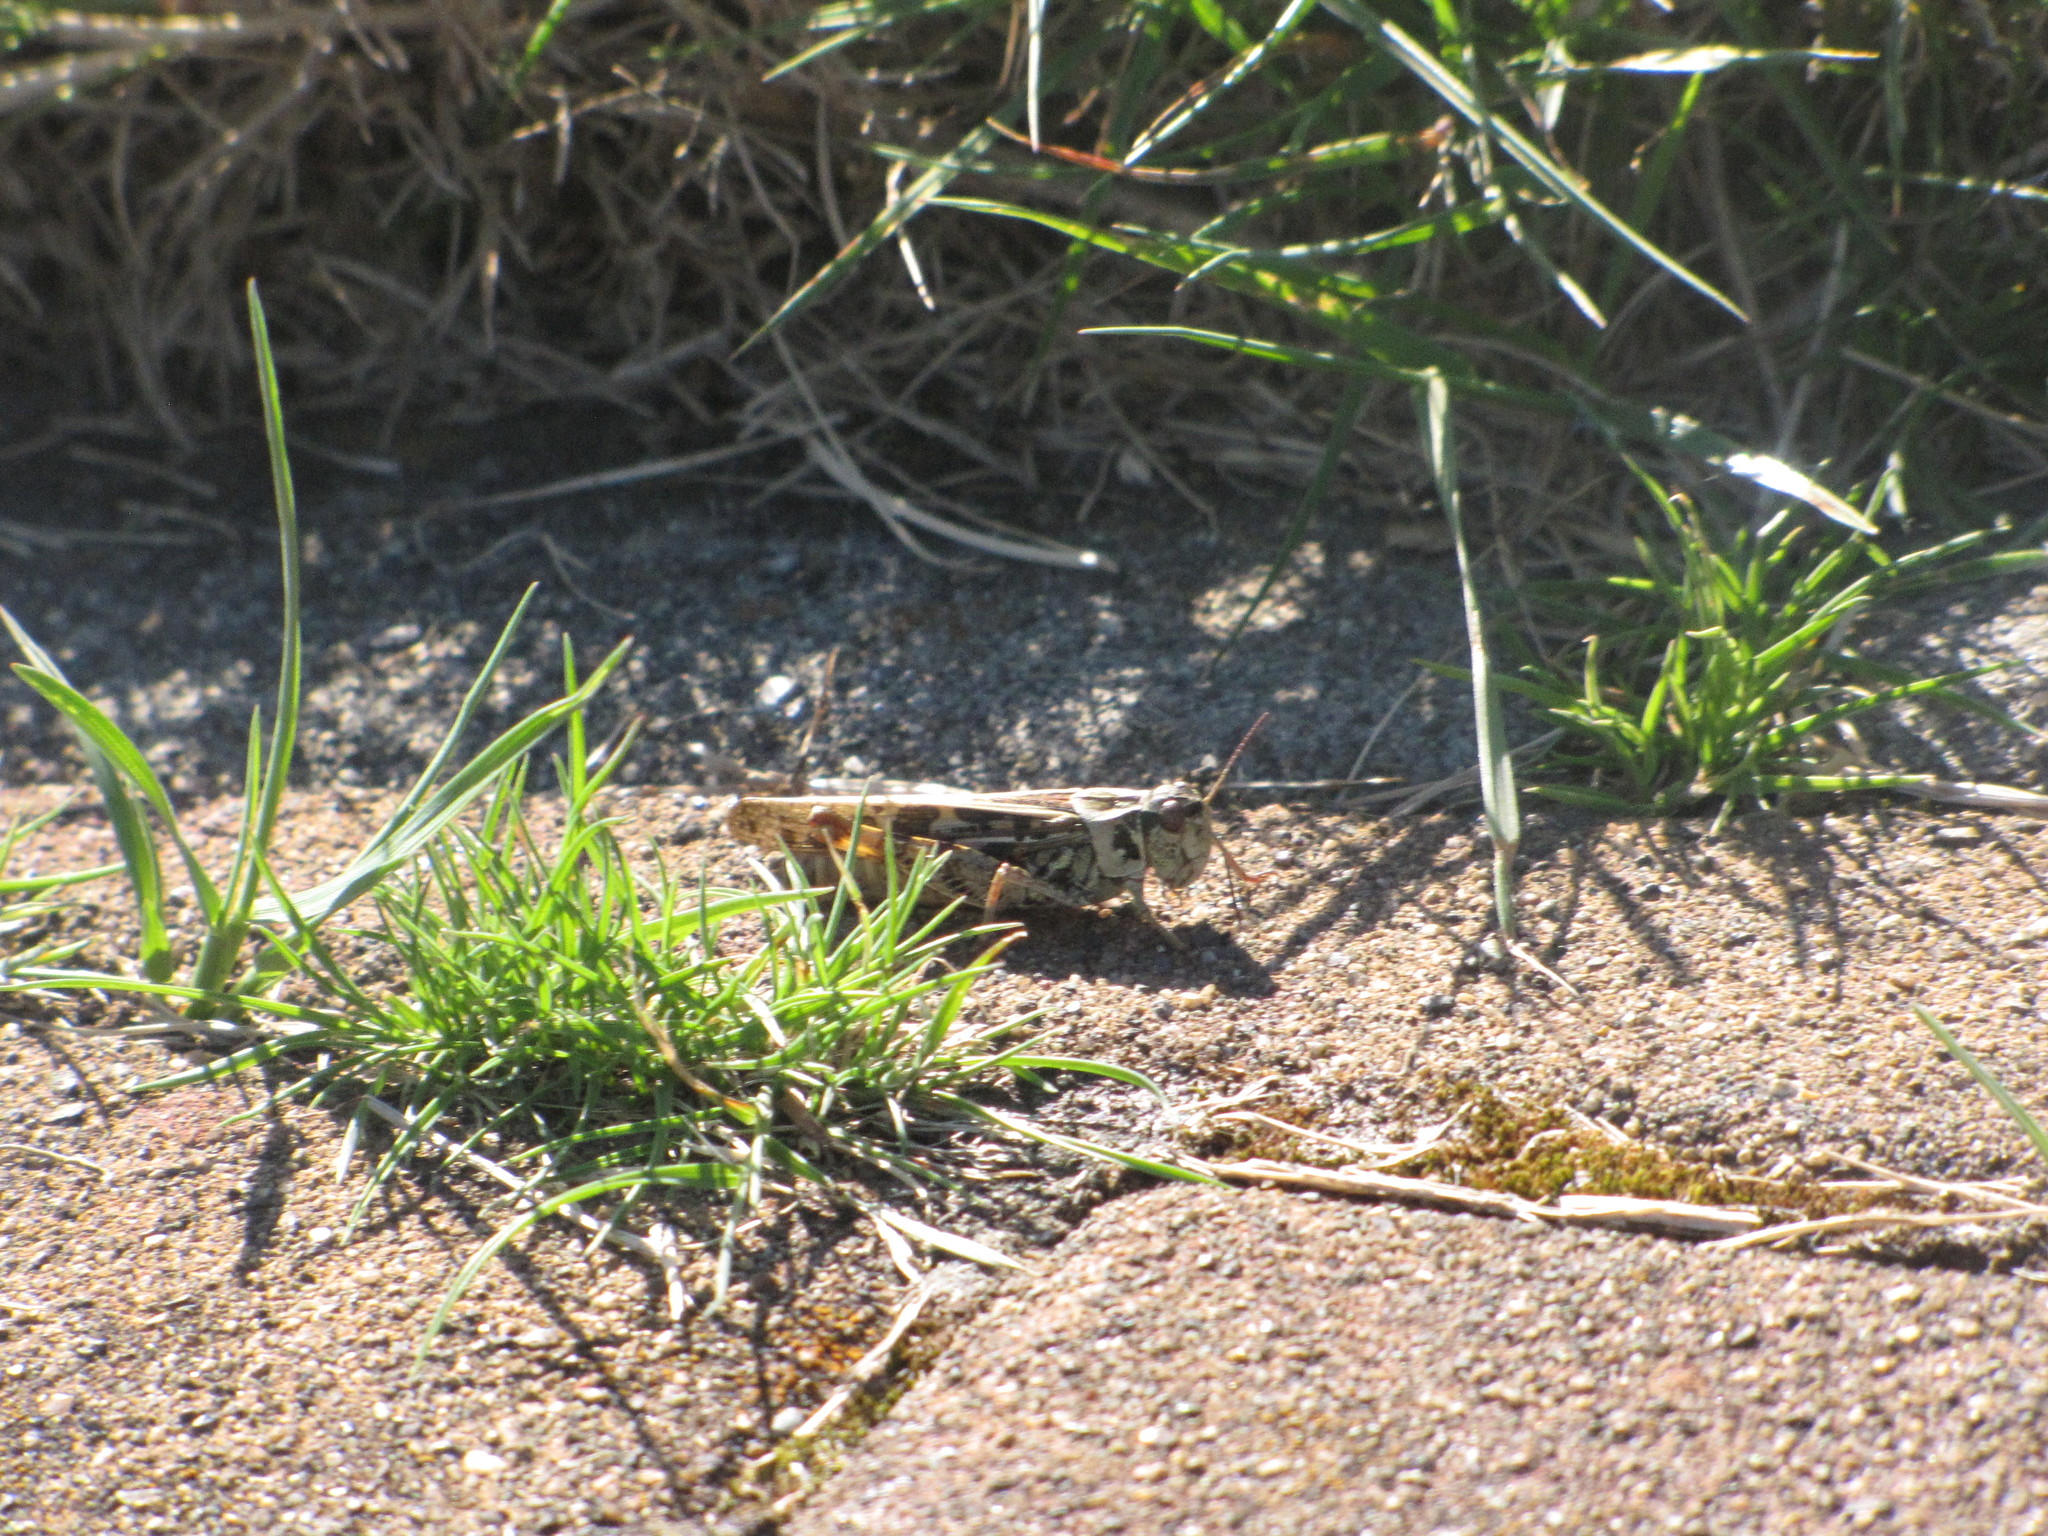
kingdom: Animalia
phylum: Arthropoda
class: Insecta
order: Orthoptera
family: Acrididae
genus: Camnula
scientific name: Camnula pellucida
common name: Clear-winged grasshopper
